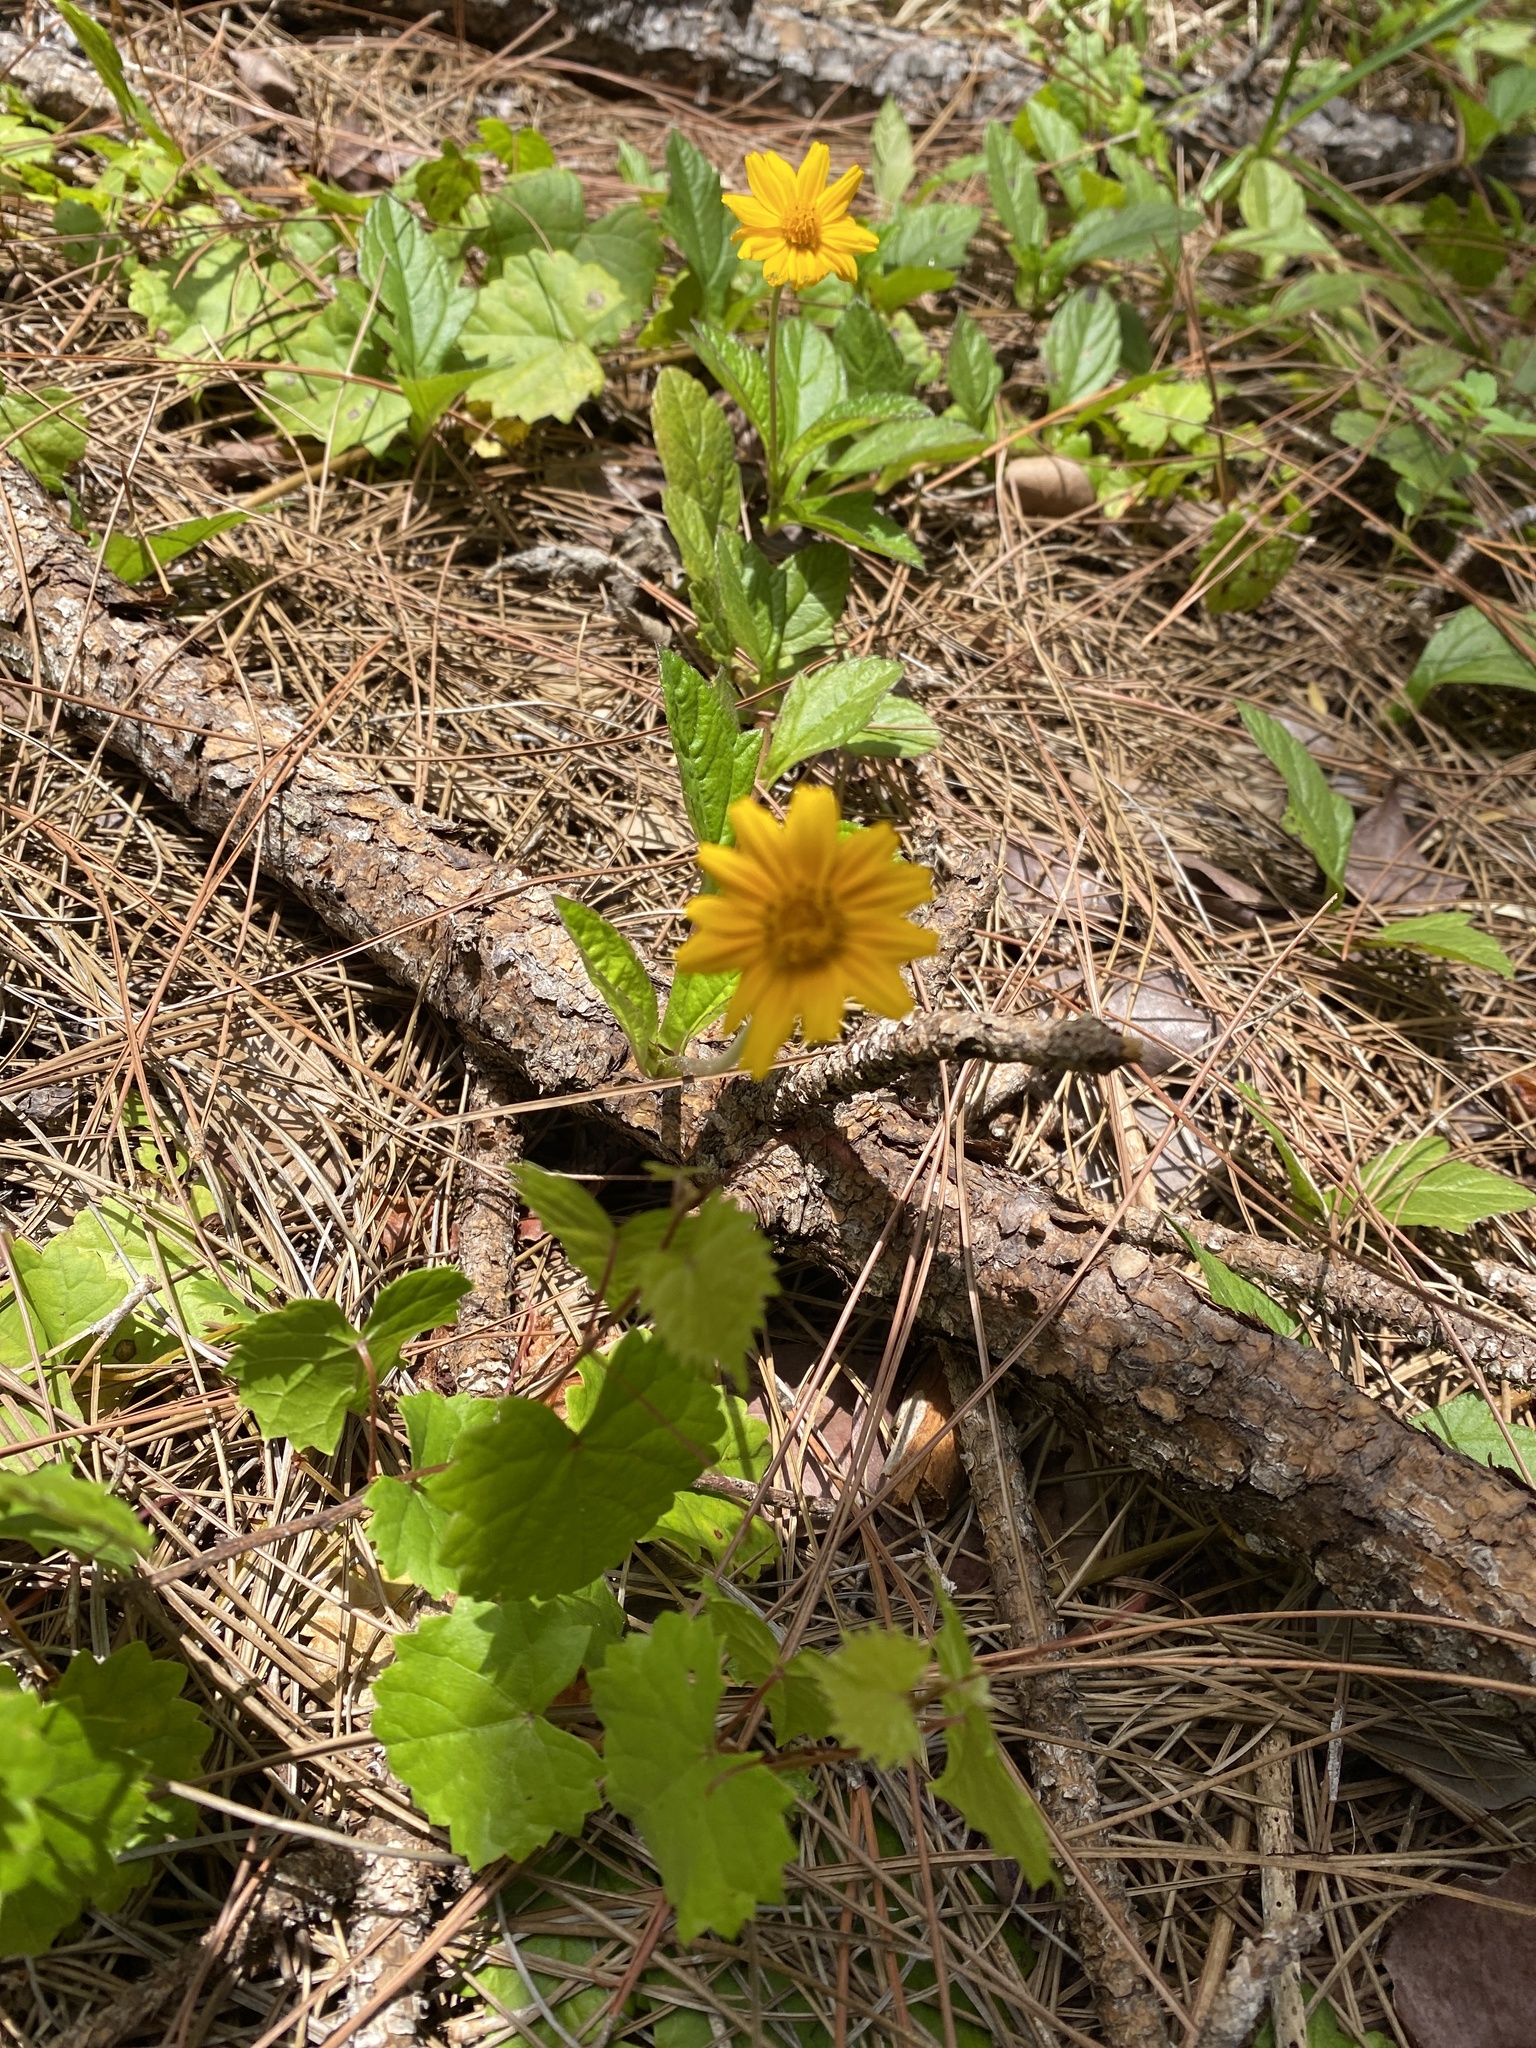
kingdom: Plantae
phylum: Tracheophyta
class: Magnoliopsida
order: Asterales
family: Asteraceae
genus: Sphagneticola
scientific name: Sphagneticola trilobata
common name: Bay biscayne creeping-oxeye
